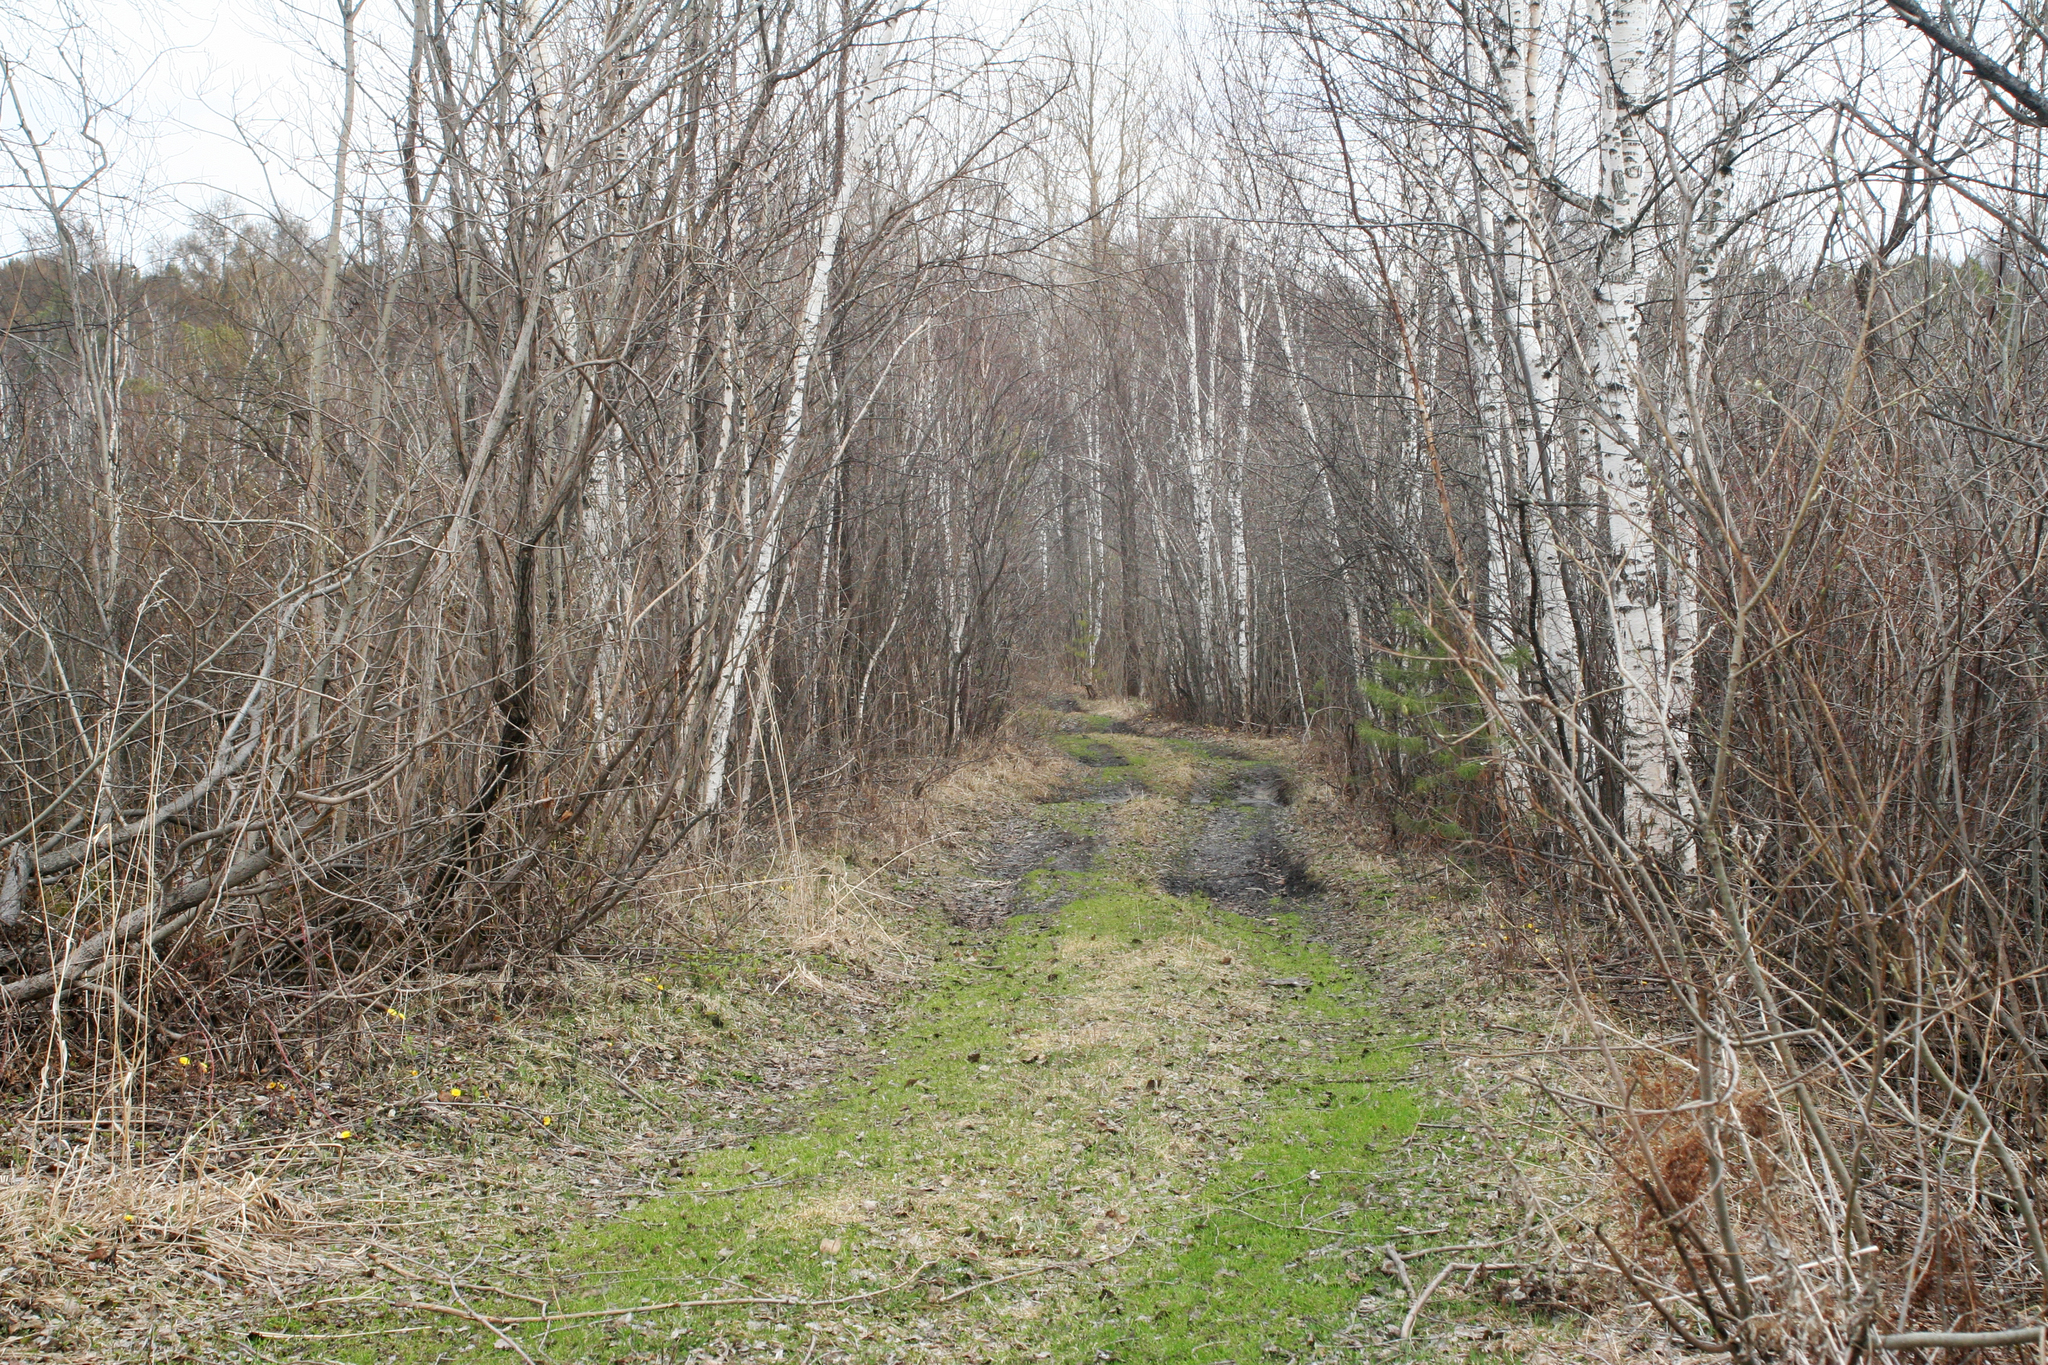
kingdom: Plantae
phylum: Tracheophyta
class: Magnoliopsida
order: Fagales
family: Betulaceae
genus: Betula
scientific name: Betula pubescens
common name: Downy birch
